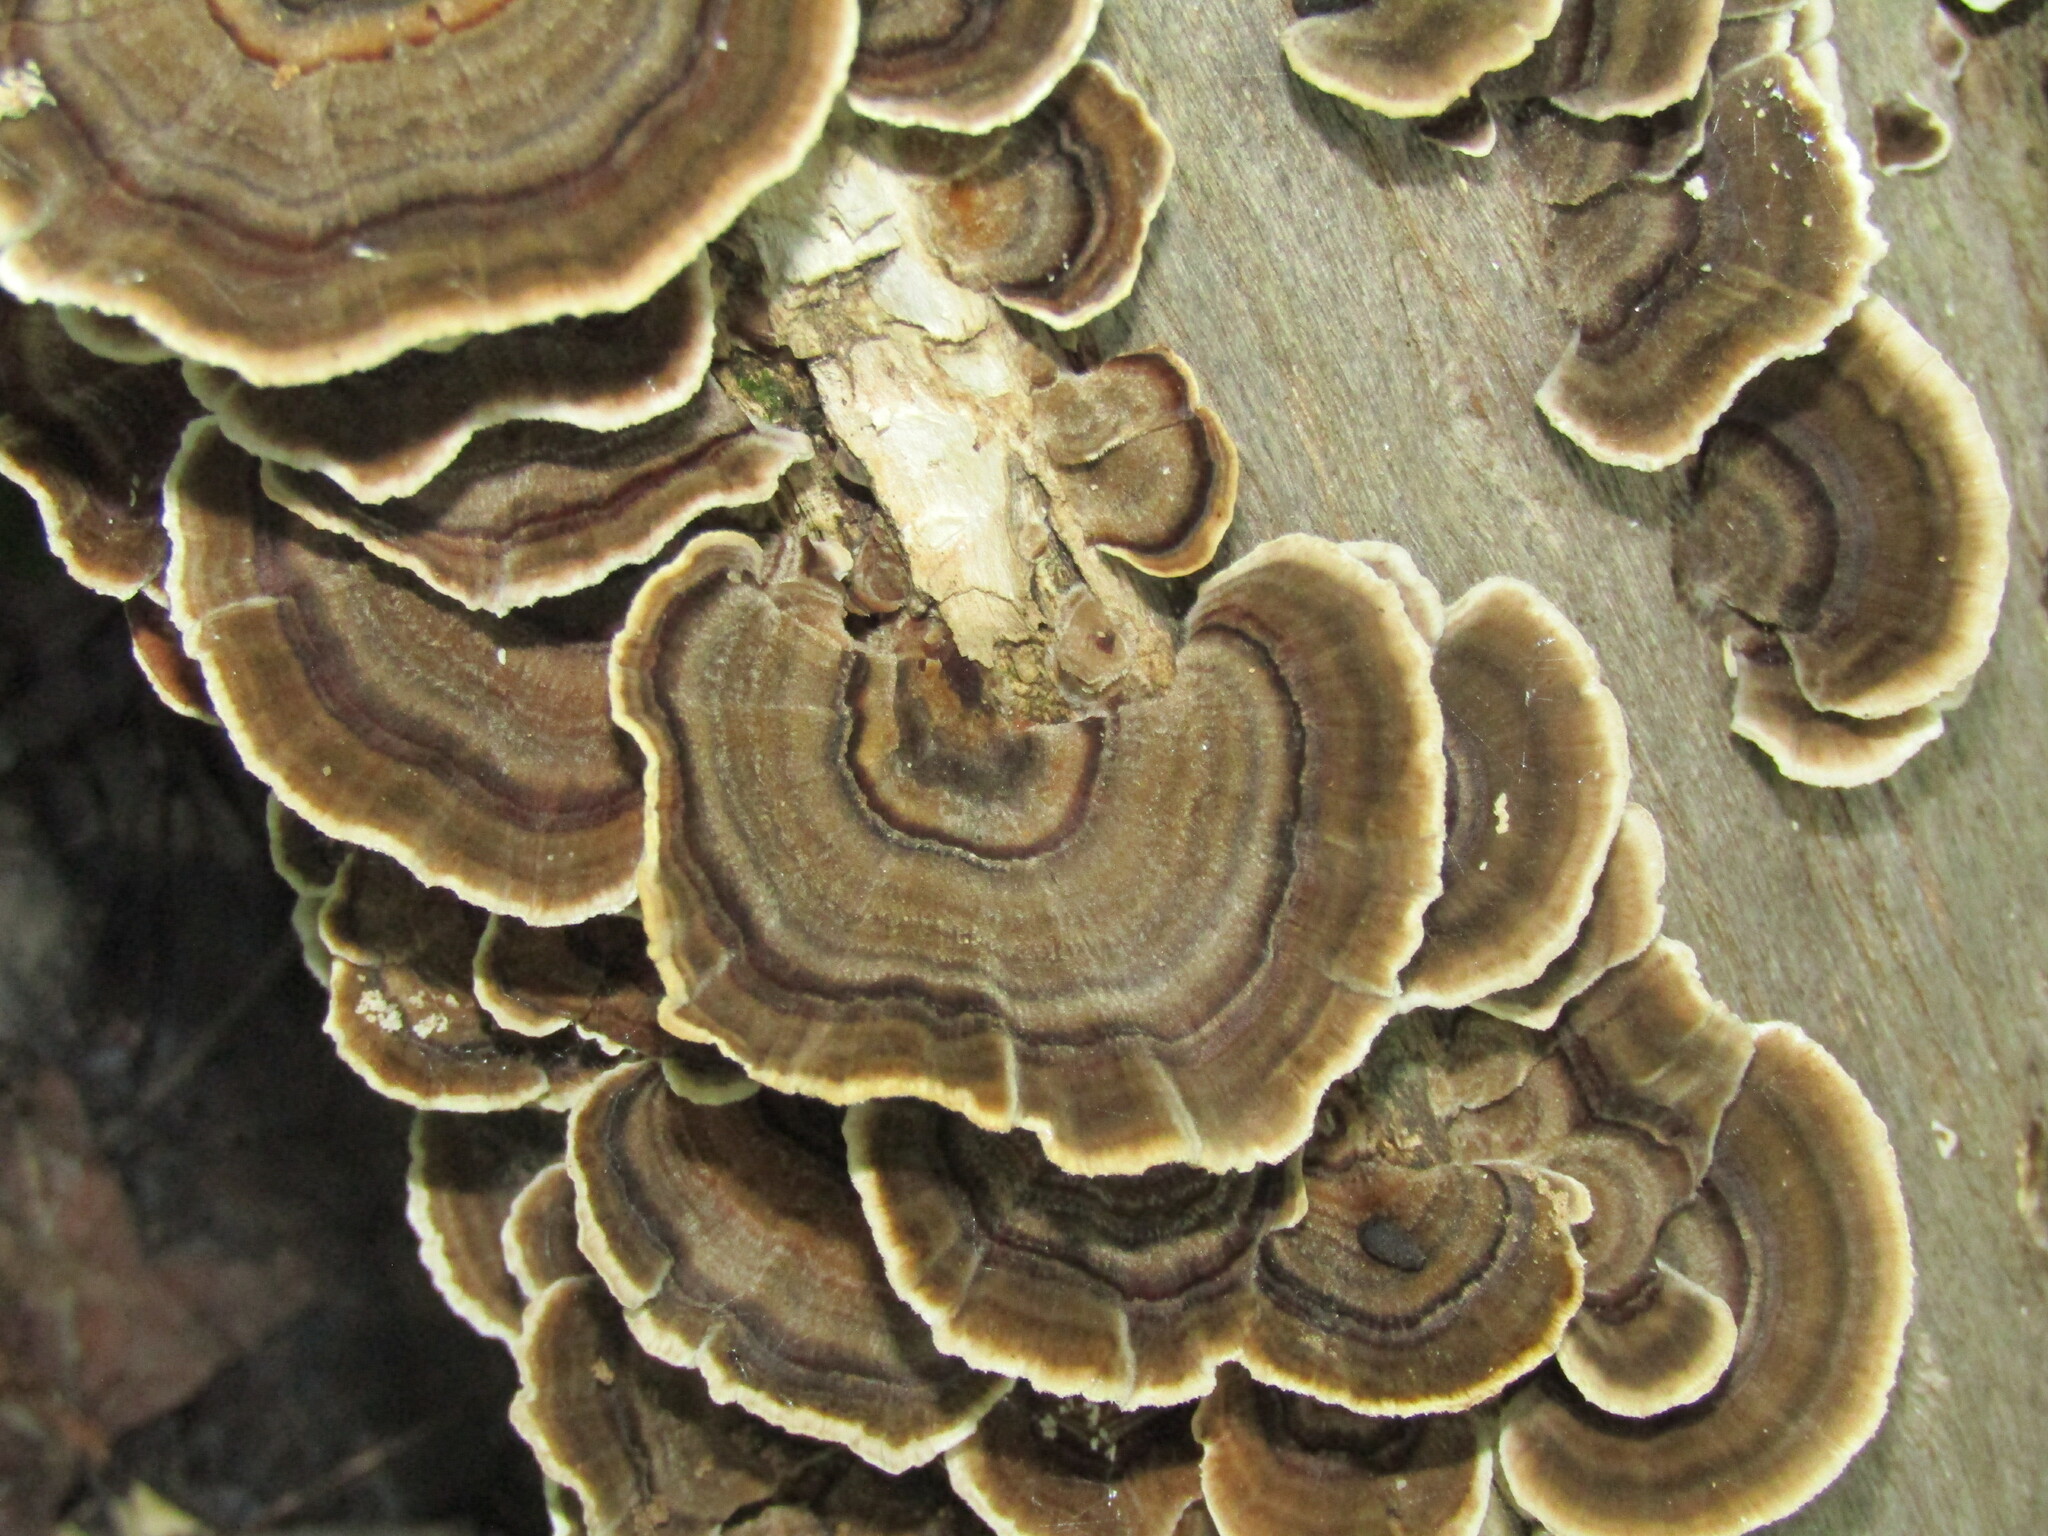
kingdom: Fungi
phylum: Basidiomycota
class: Agaricomycetes
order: Polyporales
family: Polyporaceae
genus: Trametes
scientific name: Trametes versicolor
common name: Turkeytail
